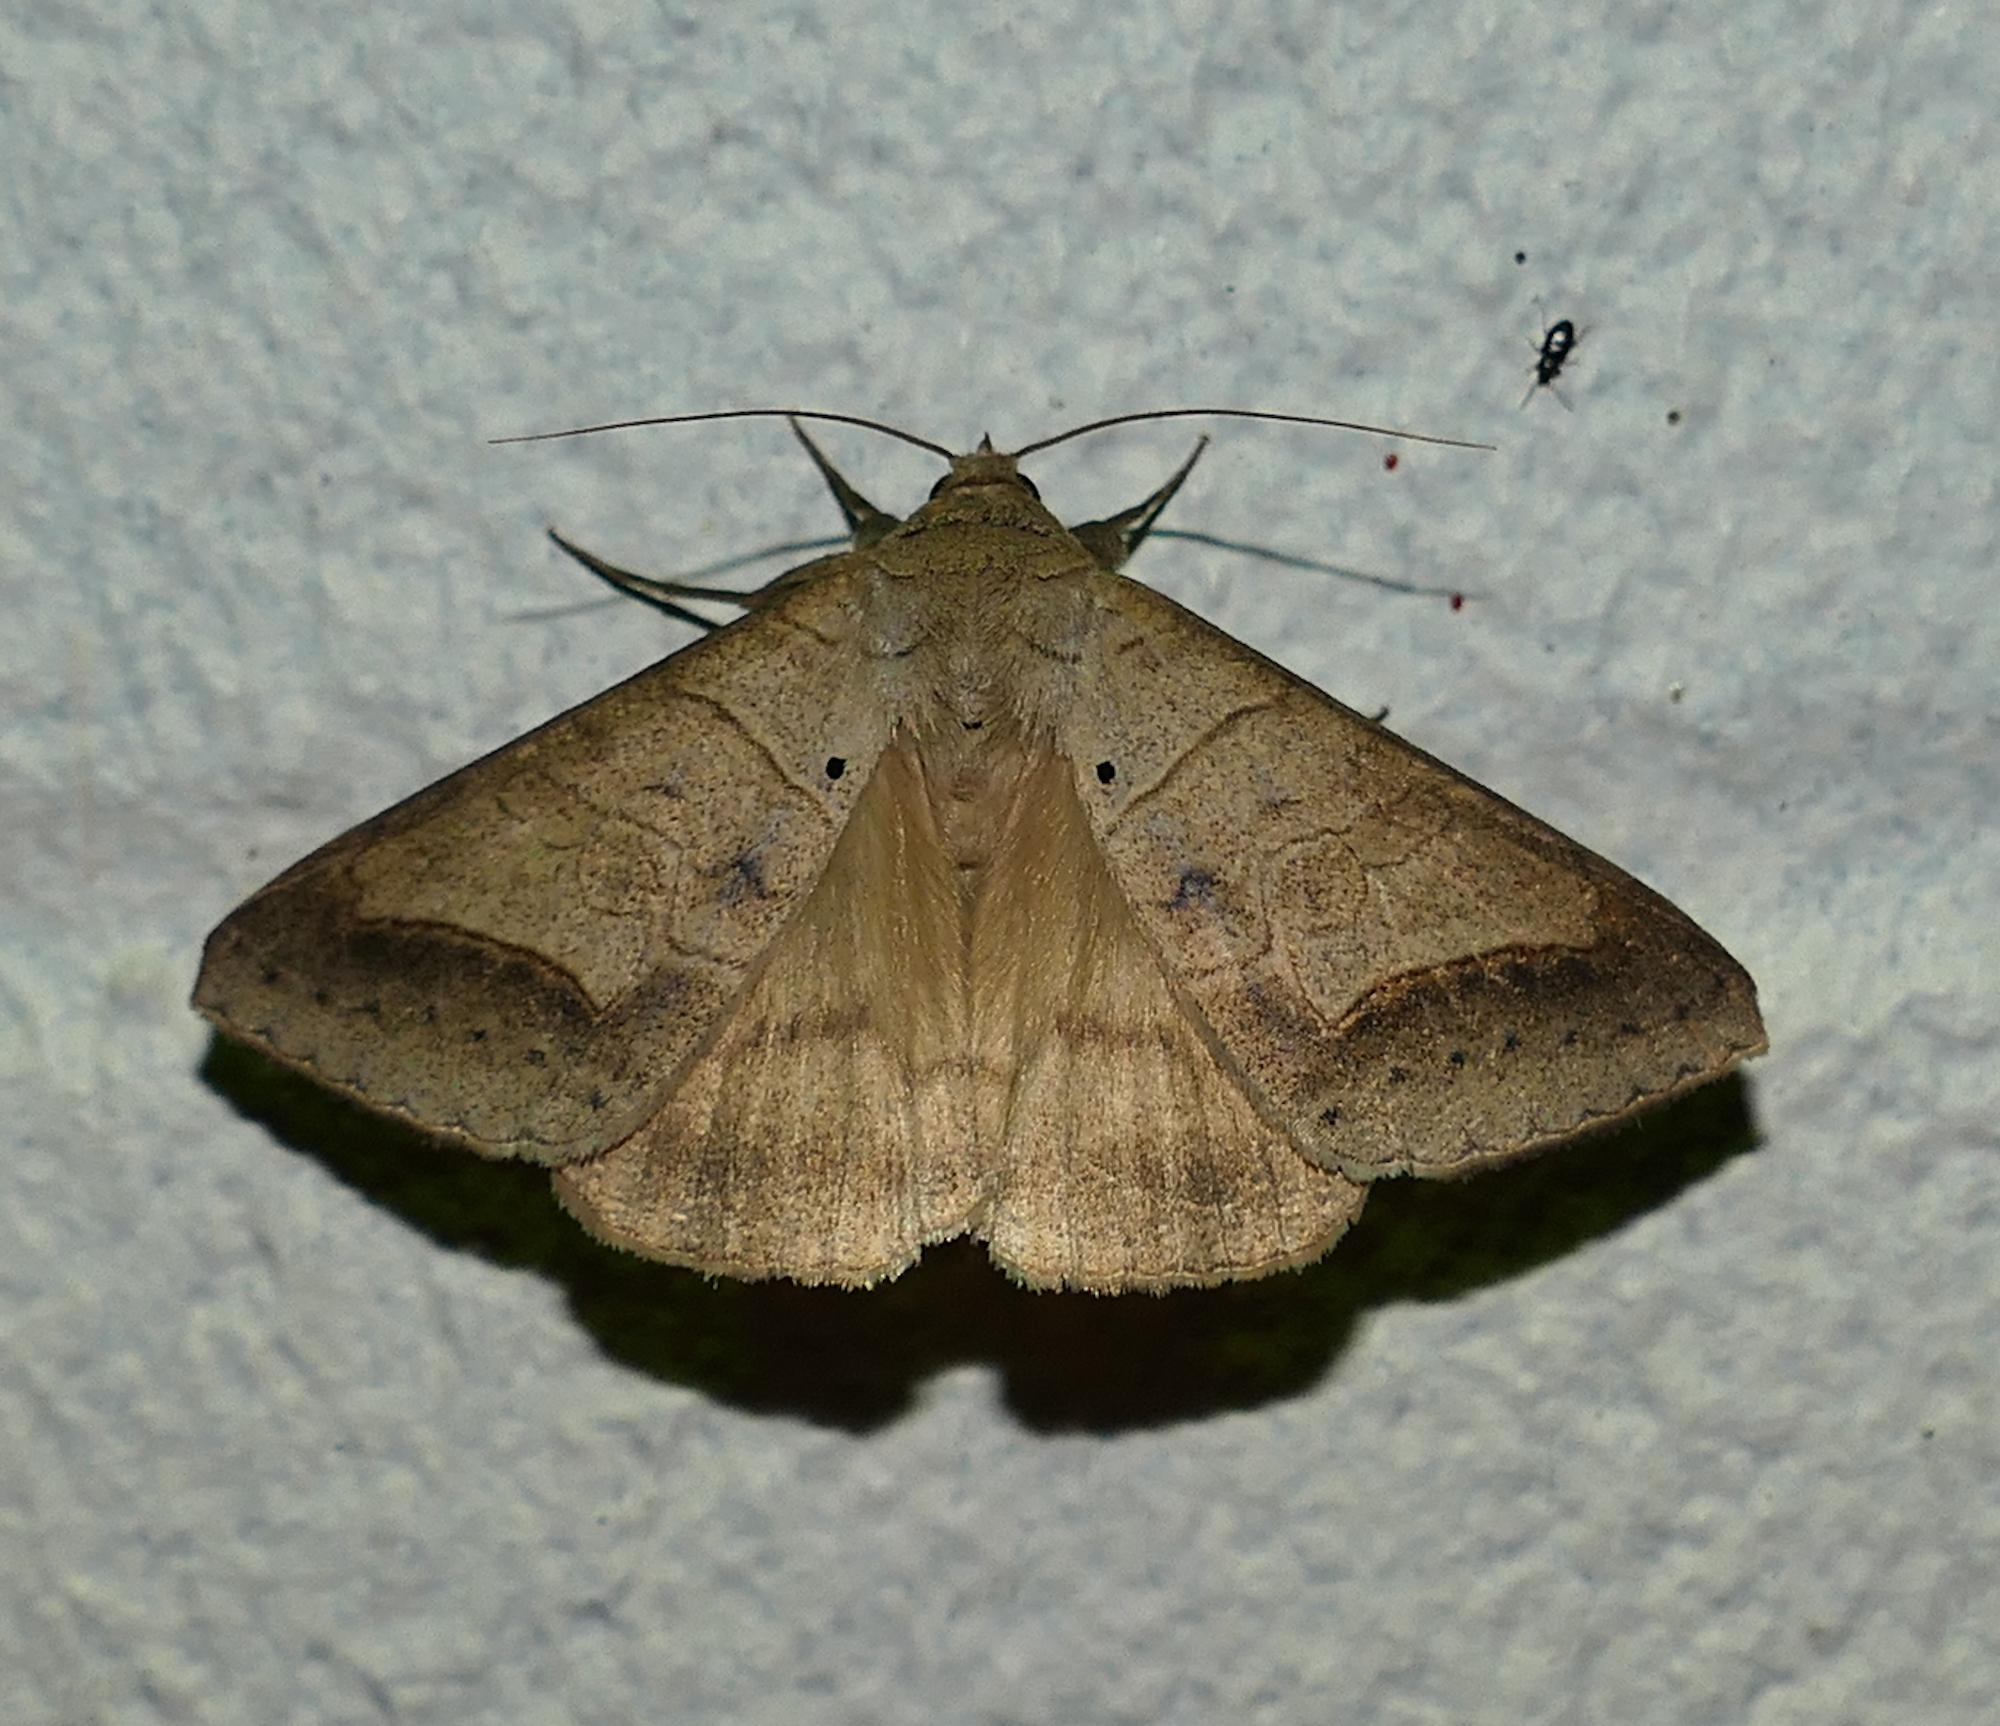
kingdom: Animalia
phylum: Arthropoda
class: Insecta
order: Lepidoptera
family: Erebidae
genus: Mocis
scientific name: Mocis marcida
